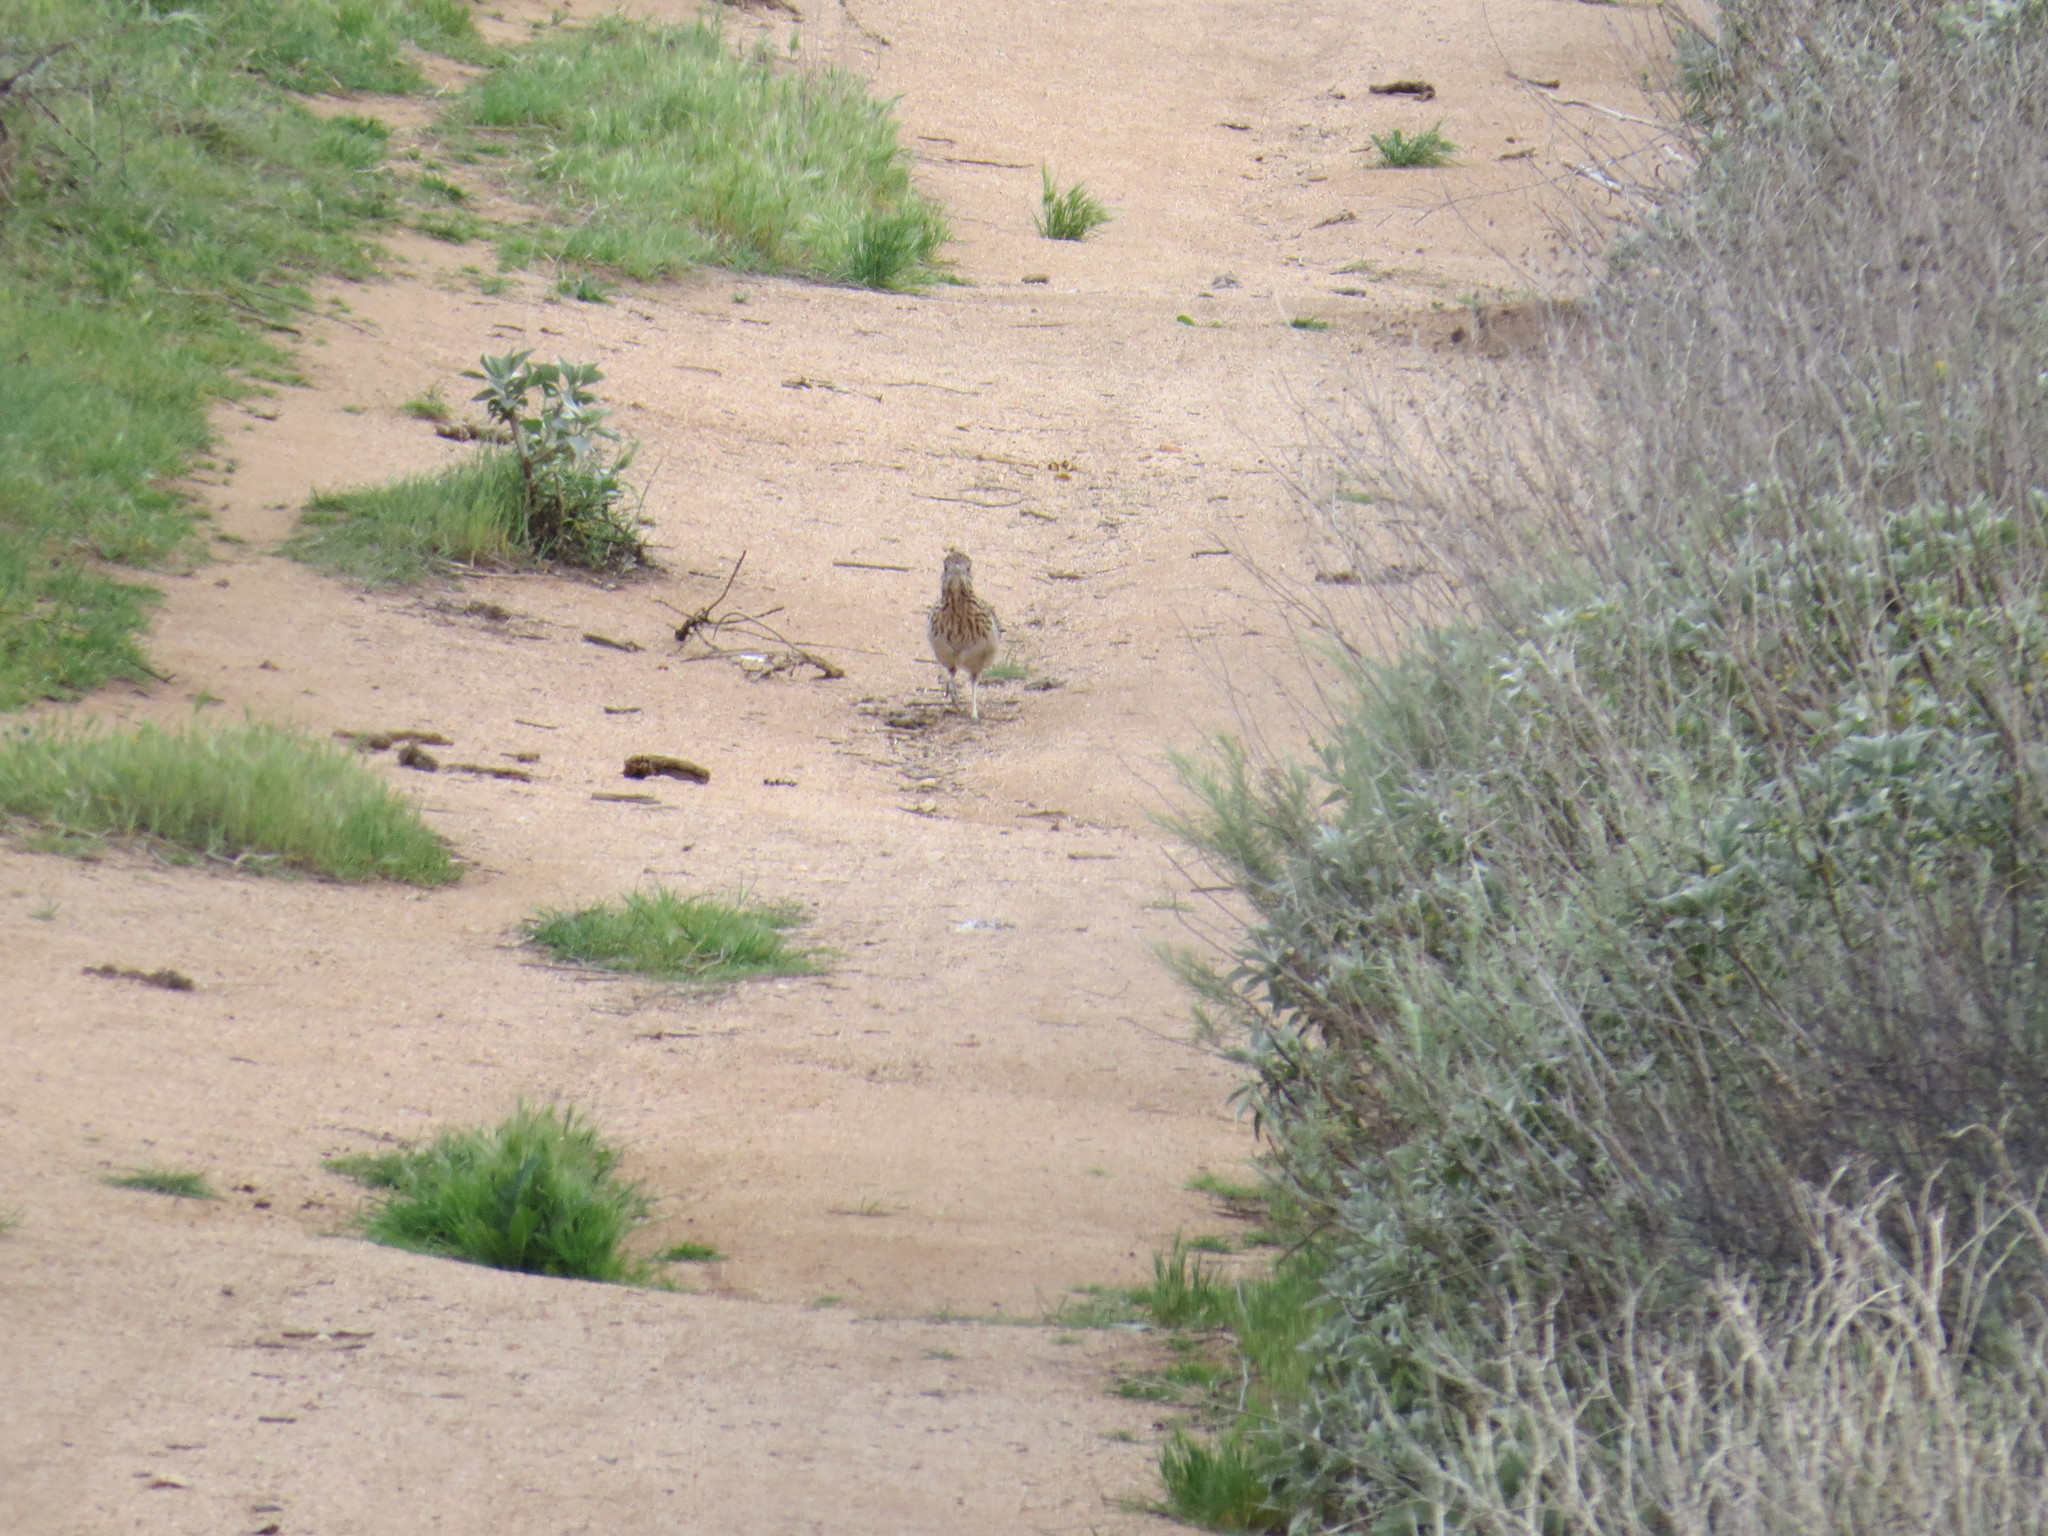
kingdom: Animalia
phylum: Chordata
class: Aves
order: Cuculiformes
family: Cuculidae
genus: Geococcyx
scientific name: Geococcyx californianus
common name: Greater roadrunner
